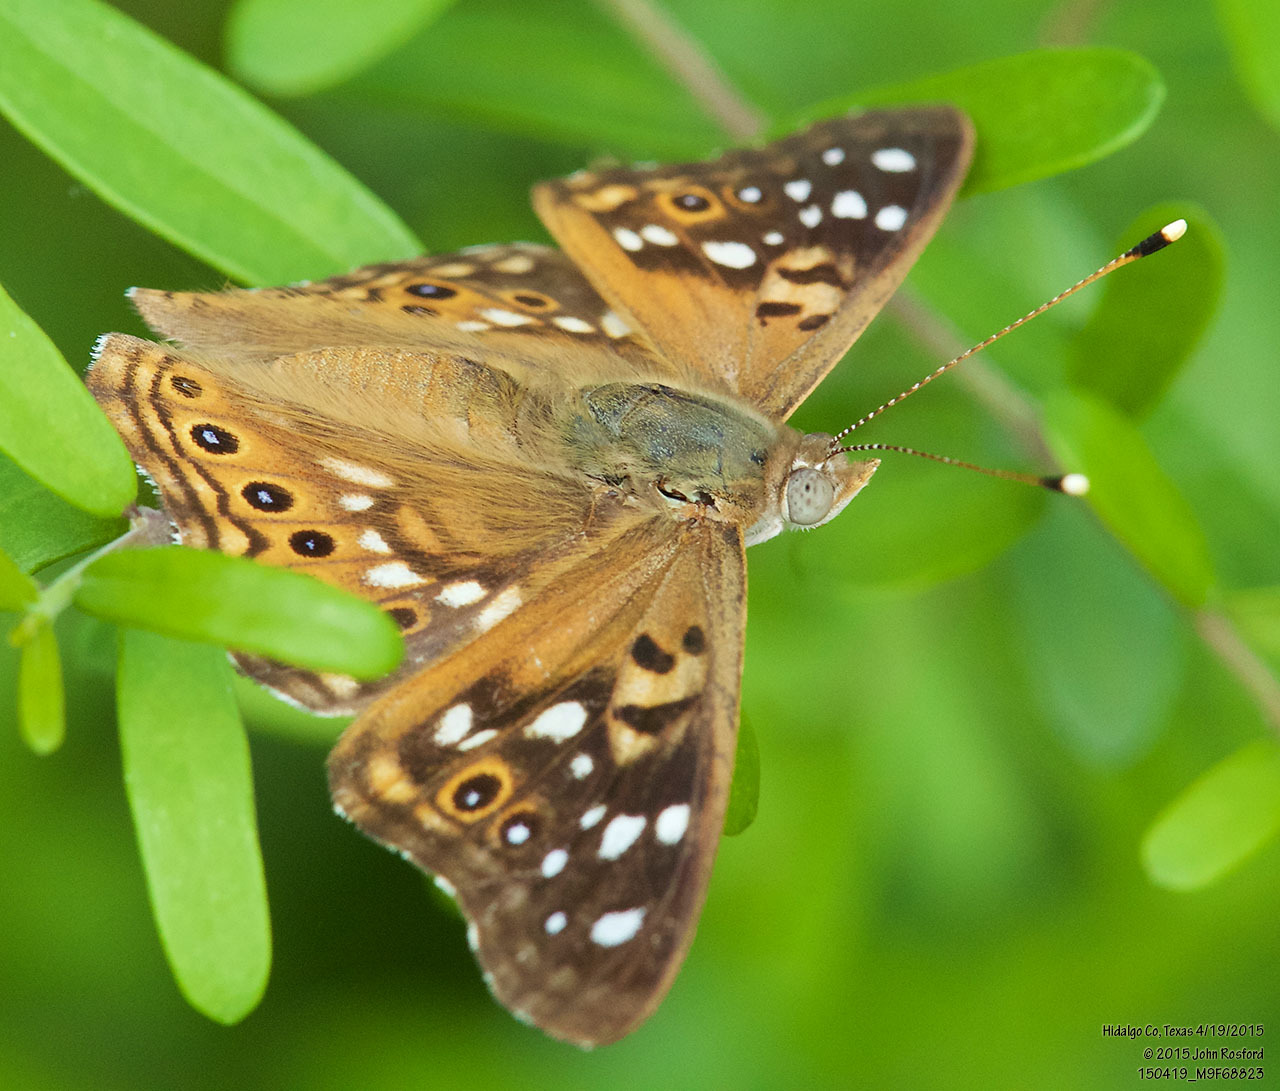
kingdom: Animalia
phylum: Arthropoda
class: Insecta
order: Lepidoptera
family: Nymphalidae
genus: Asterocampa
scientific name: Asterocampa celtis
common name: Hackberry emperor
